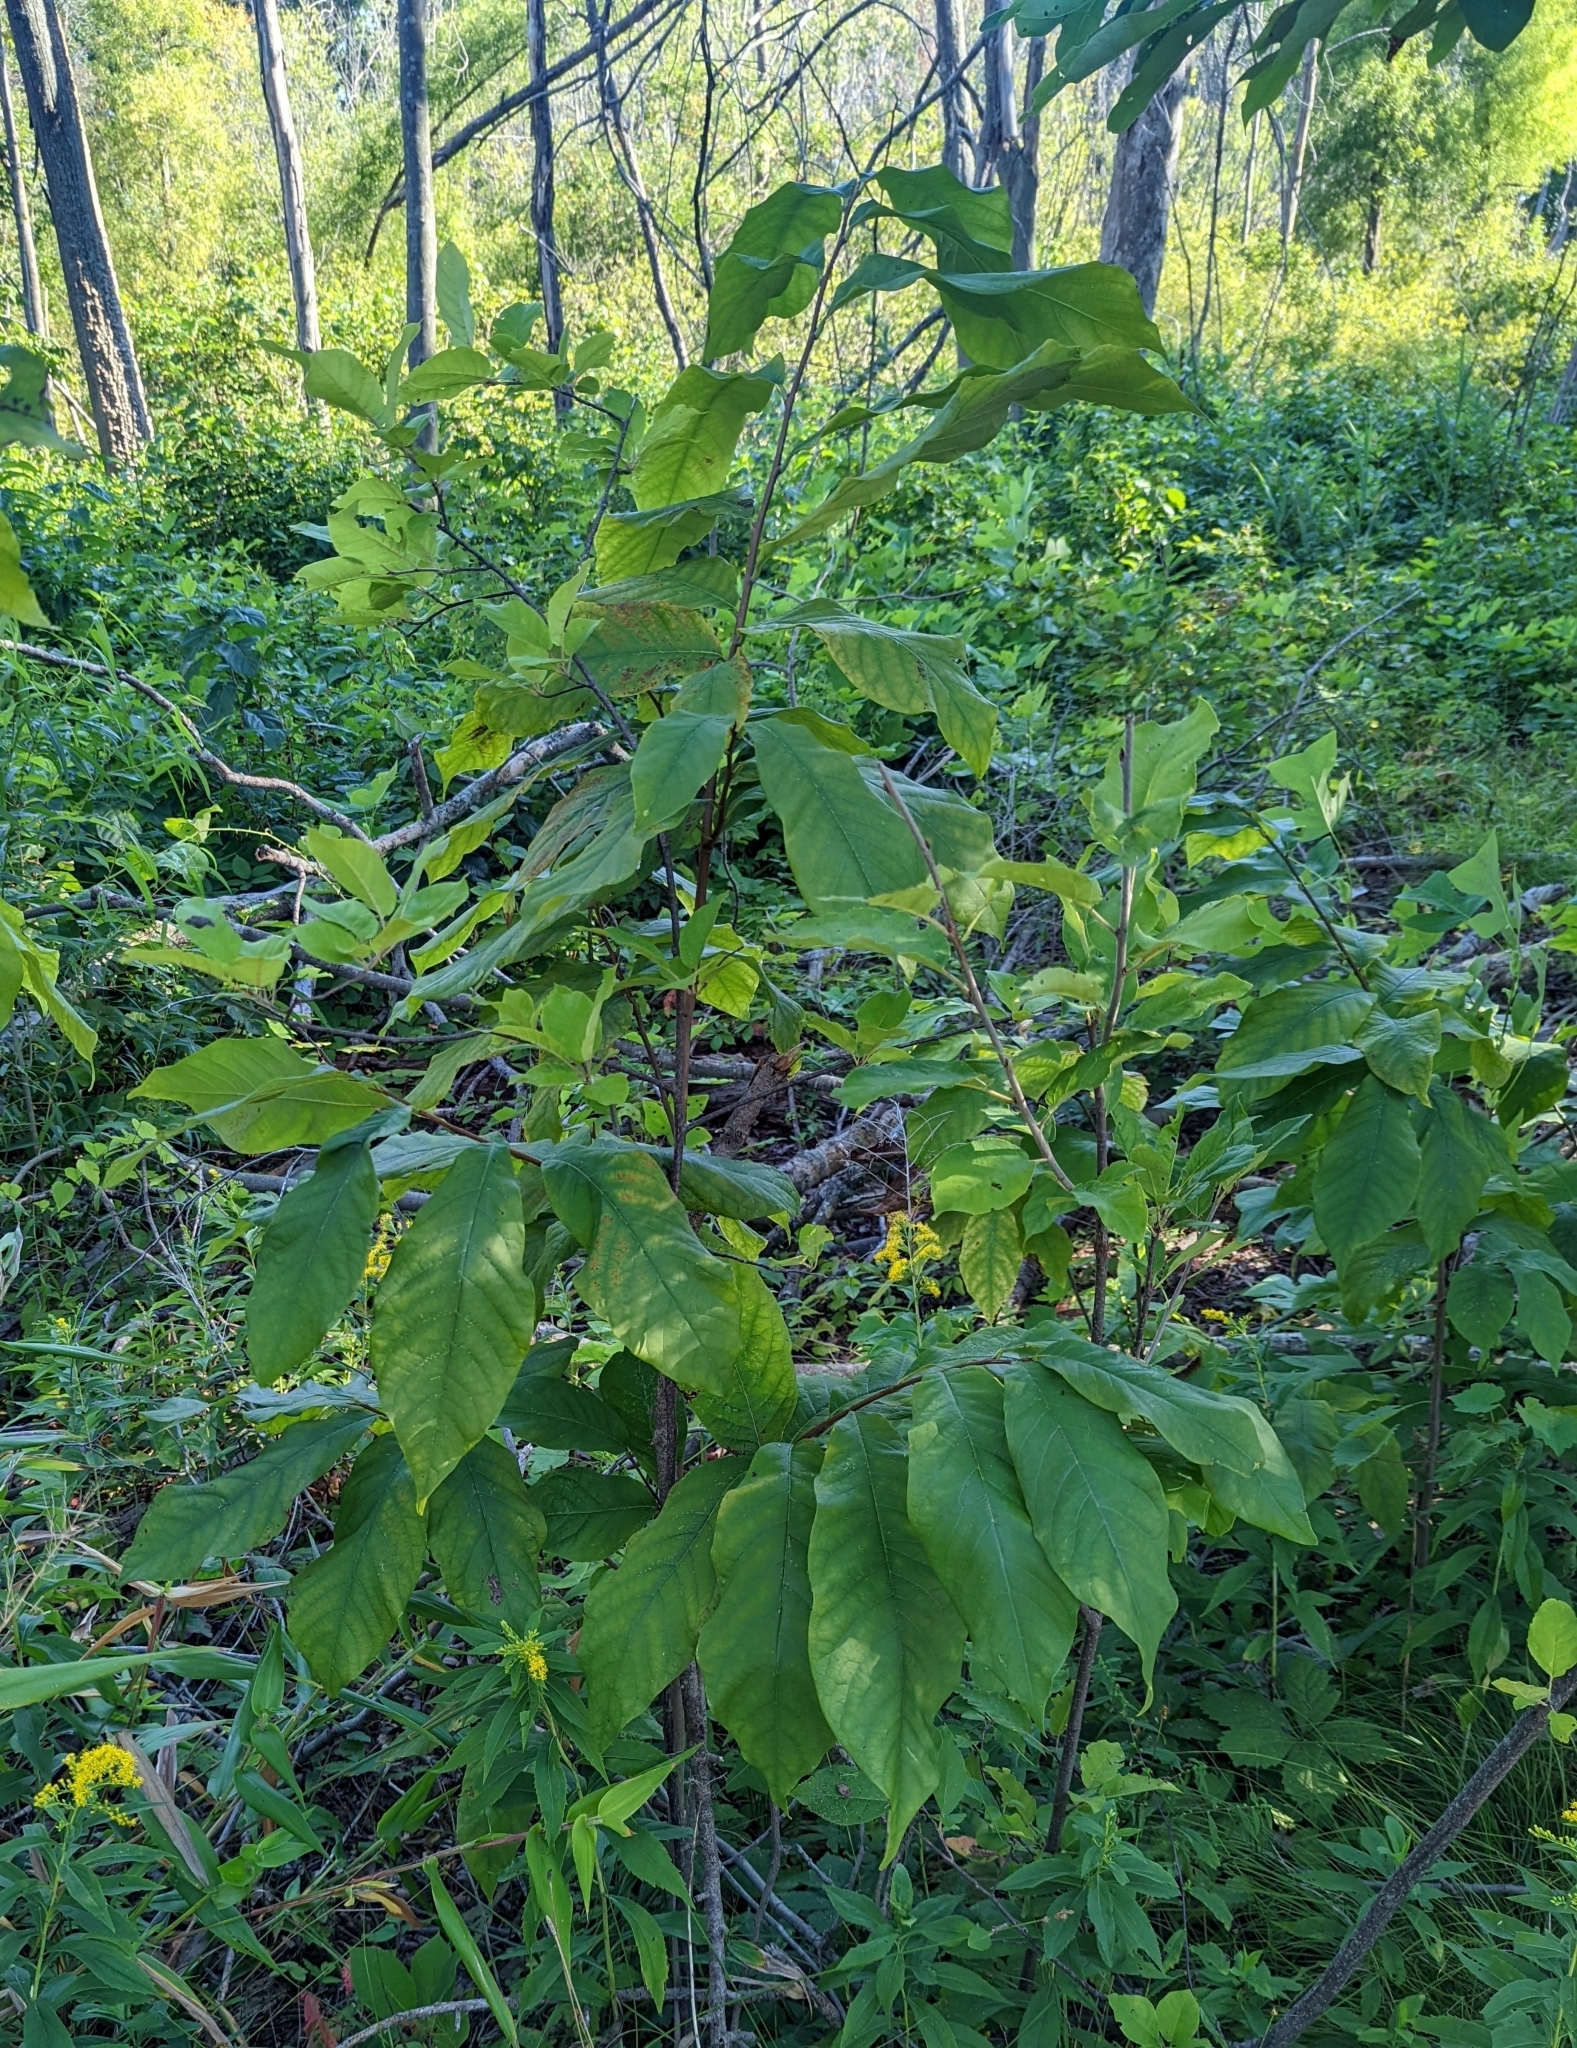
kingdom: Plantae
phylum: Tracheophyta
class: Magnoliopsida
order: Magnoliales
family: Annonaceae
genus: Asimina
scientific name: Asimina triloba
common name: Dog-banana
